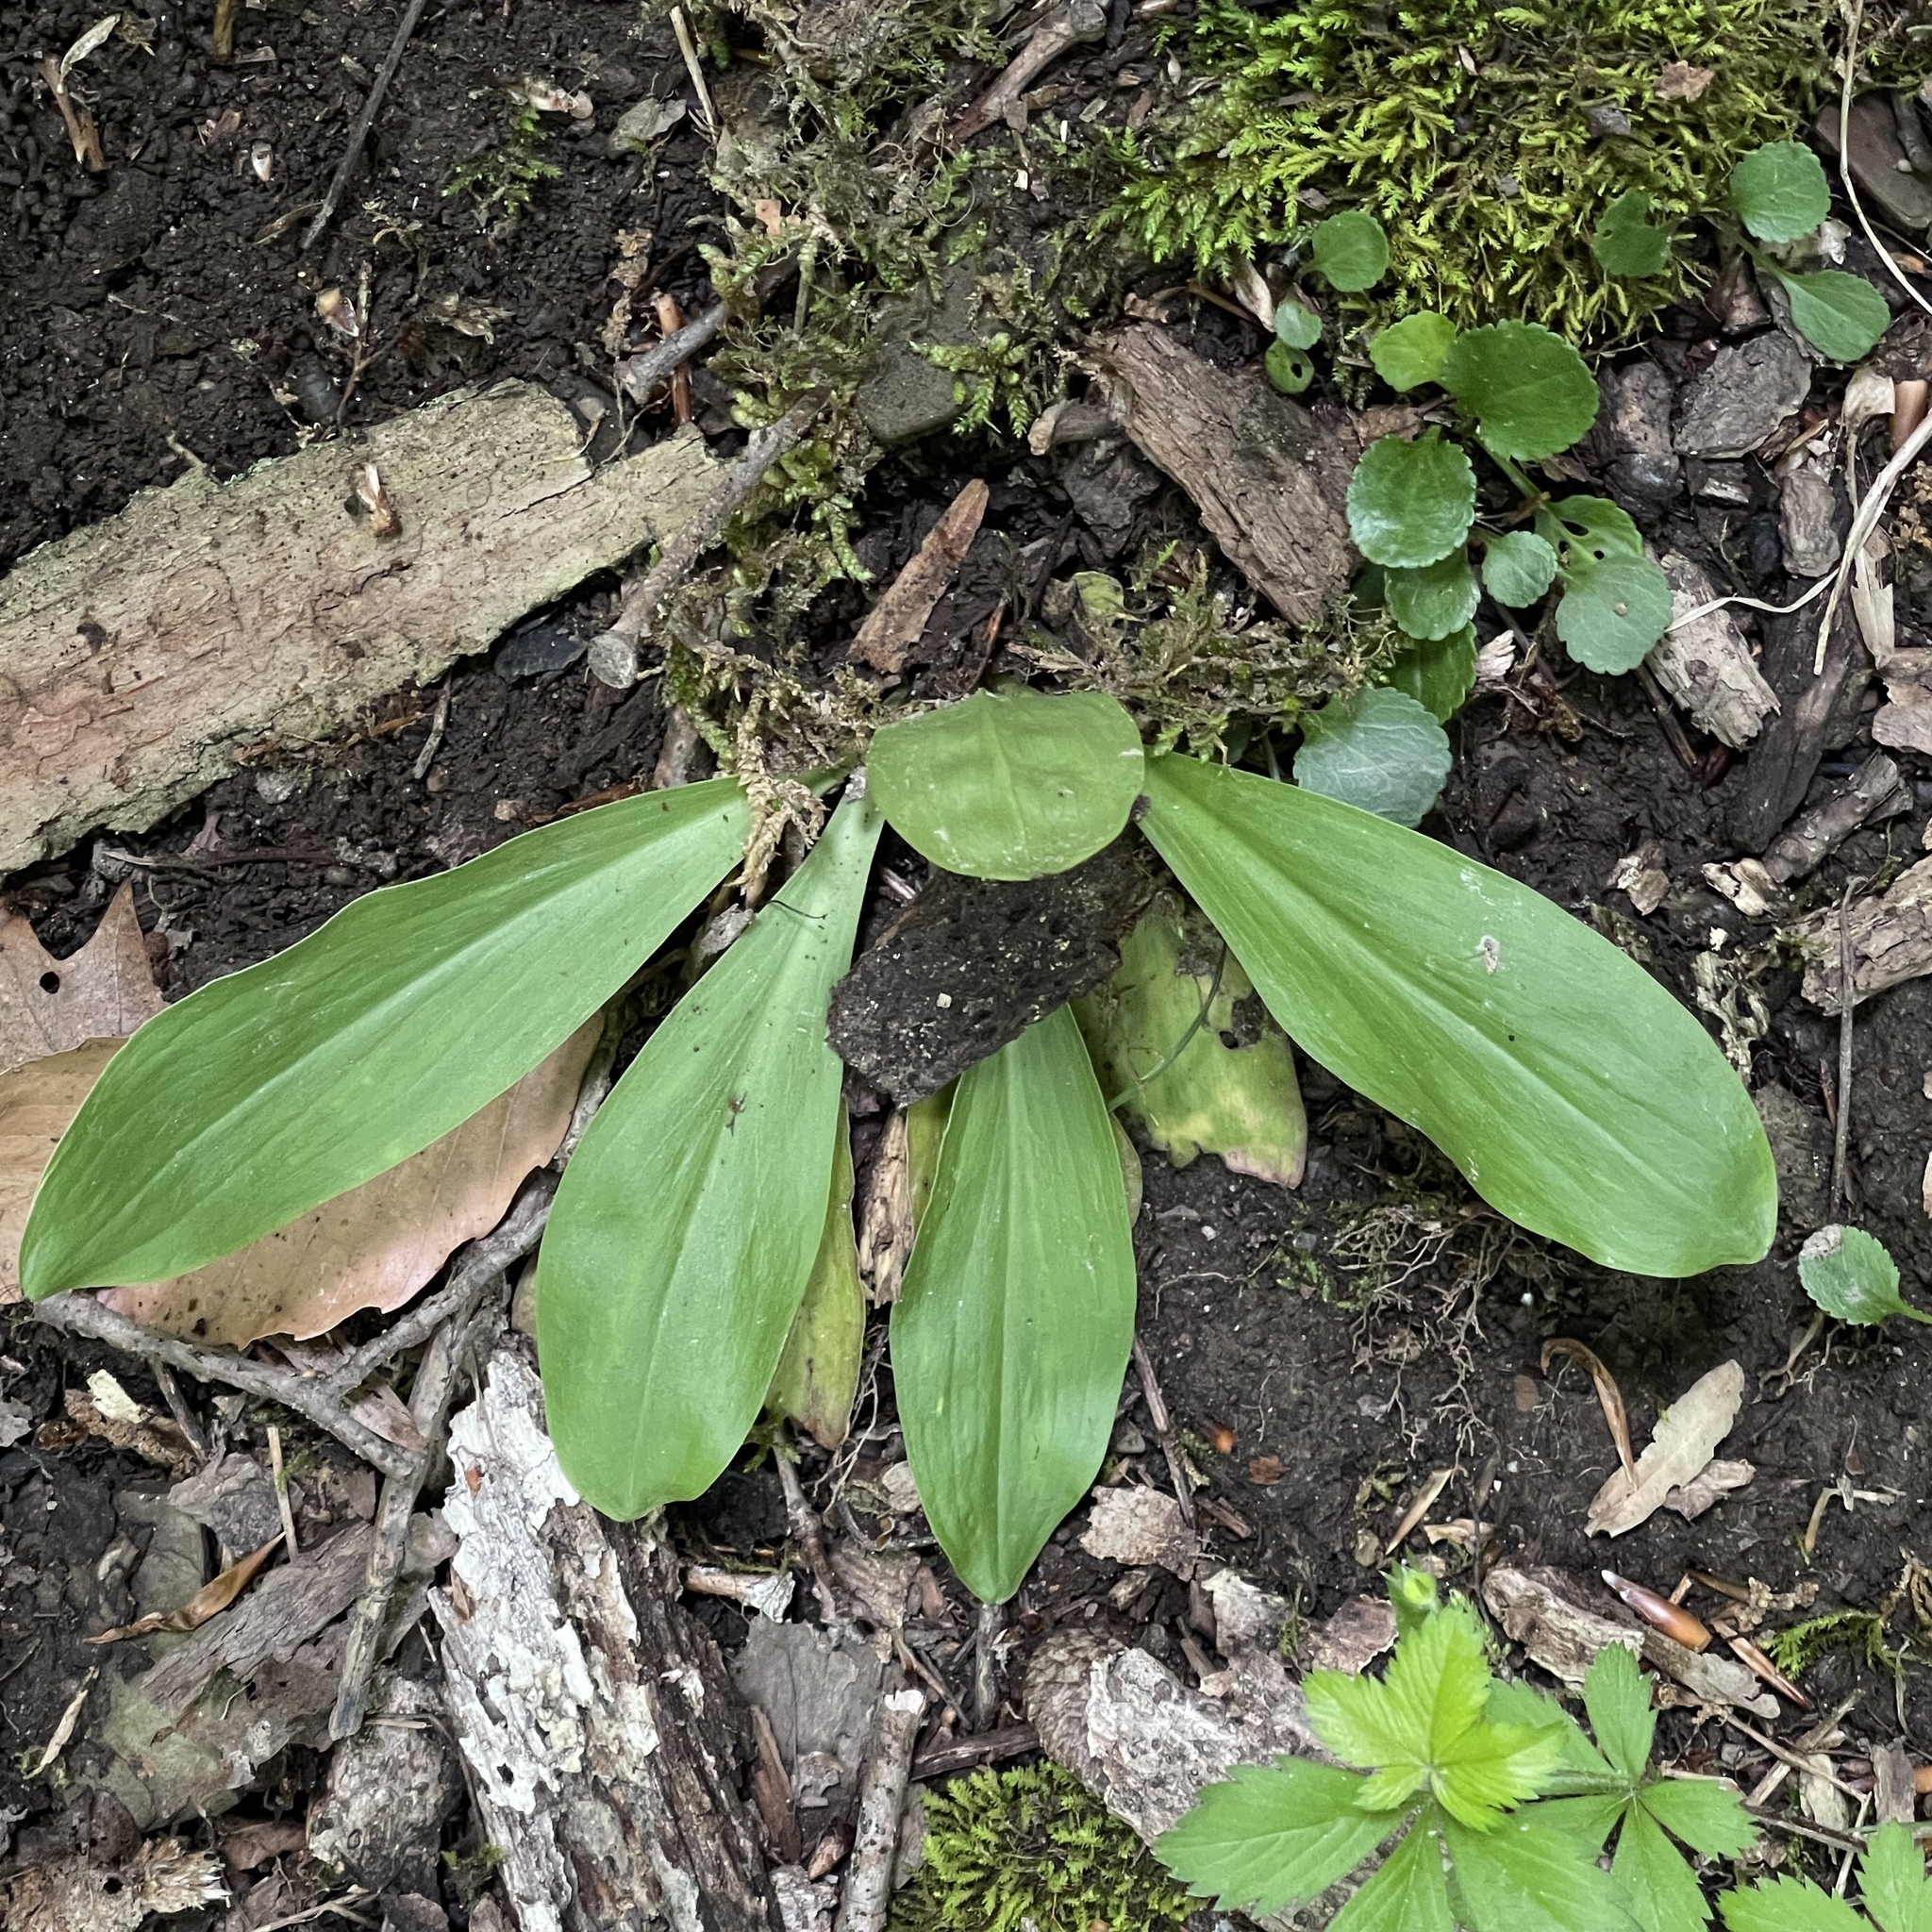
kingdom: Plantae
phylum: Tracheophyta
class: Liliopsida
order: Liliales
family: Melanthiaceae
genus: Chamaelirium
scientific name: Chamaelirium luteum
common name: Fairy-wand
